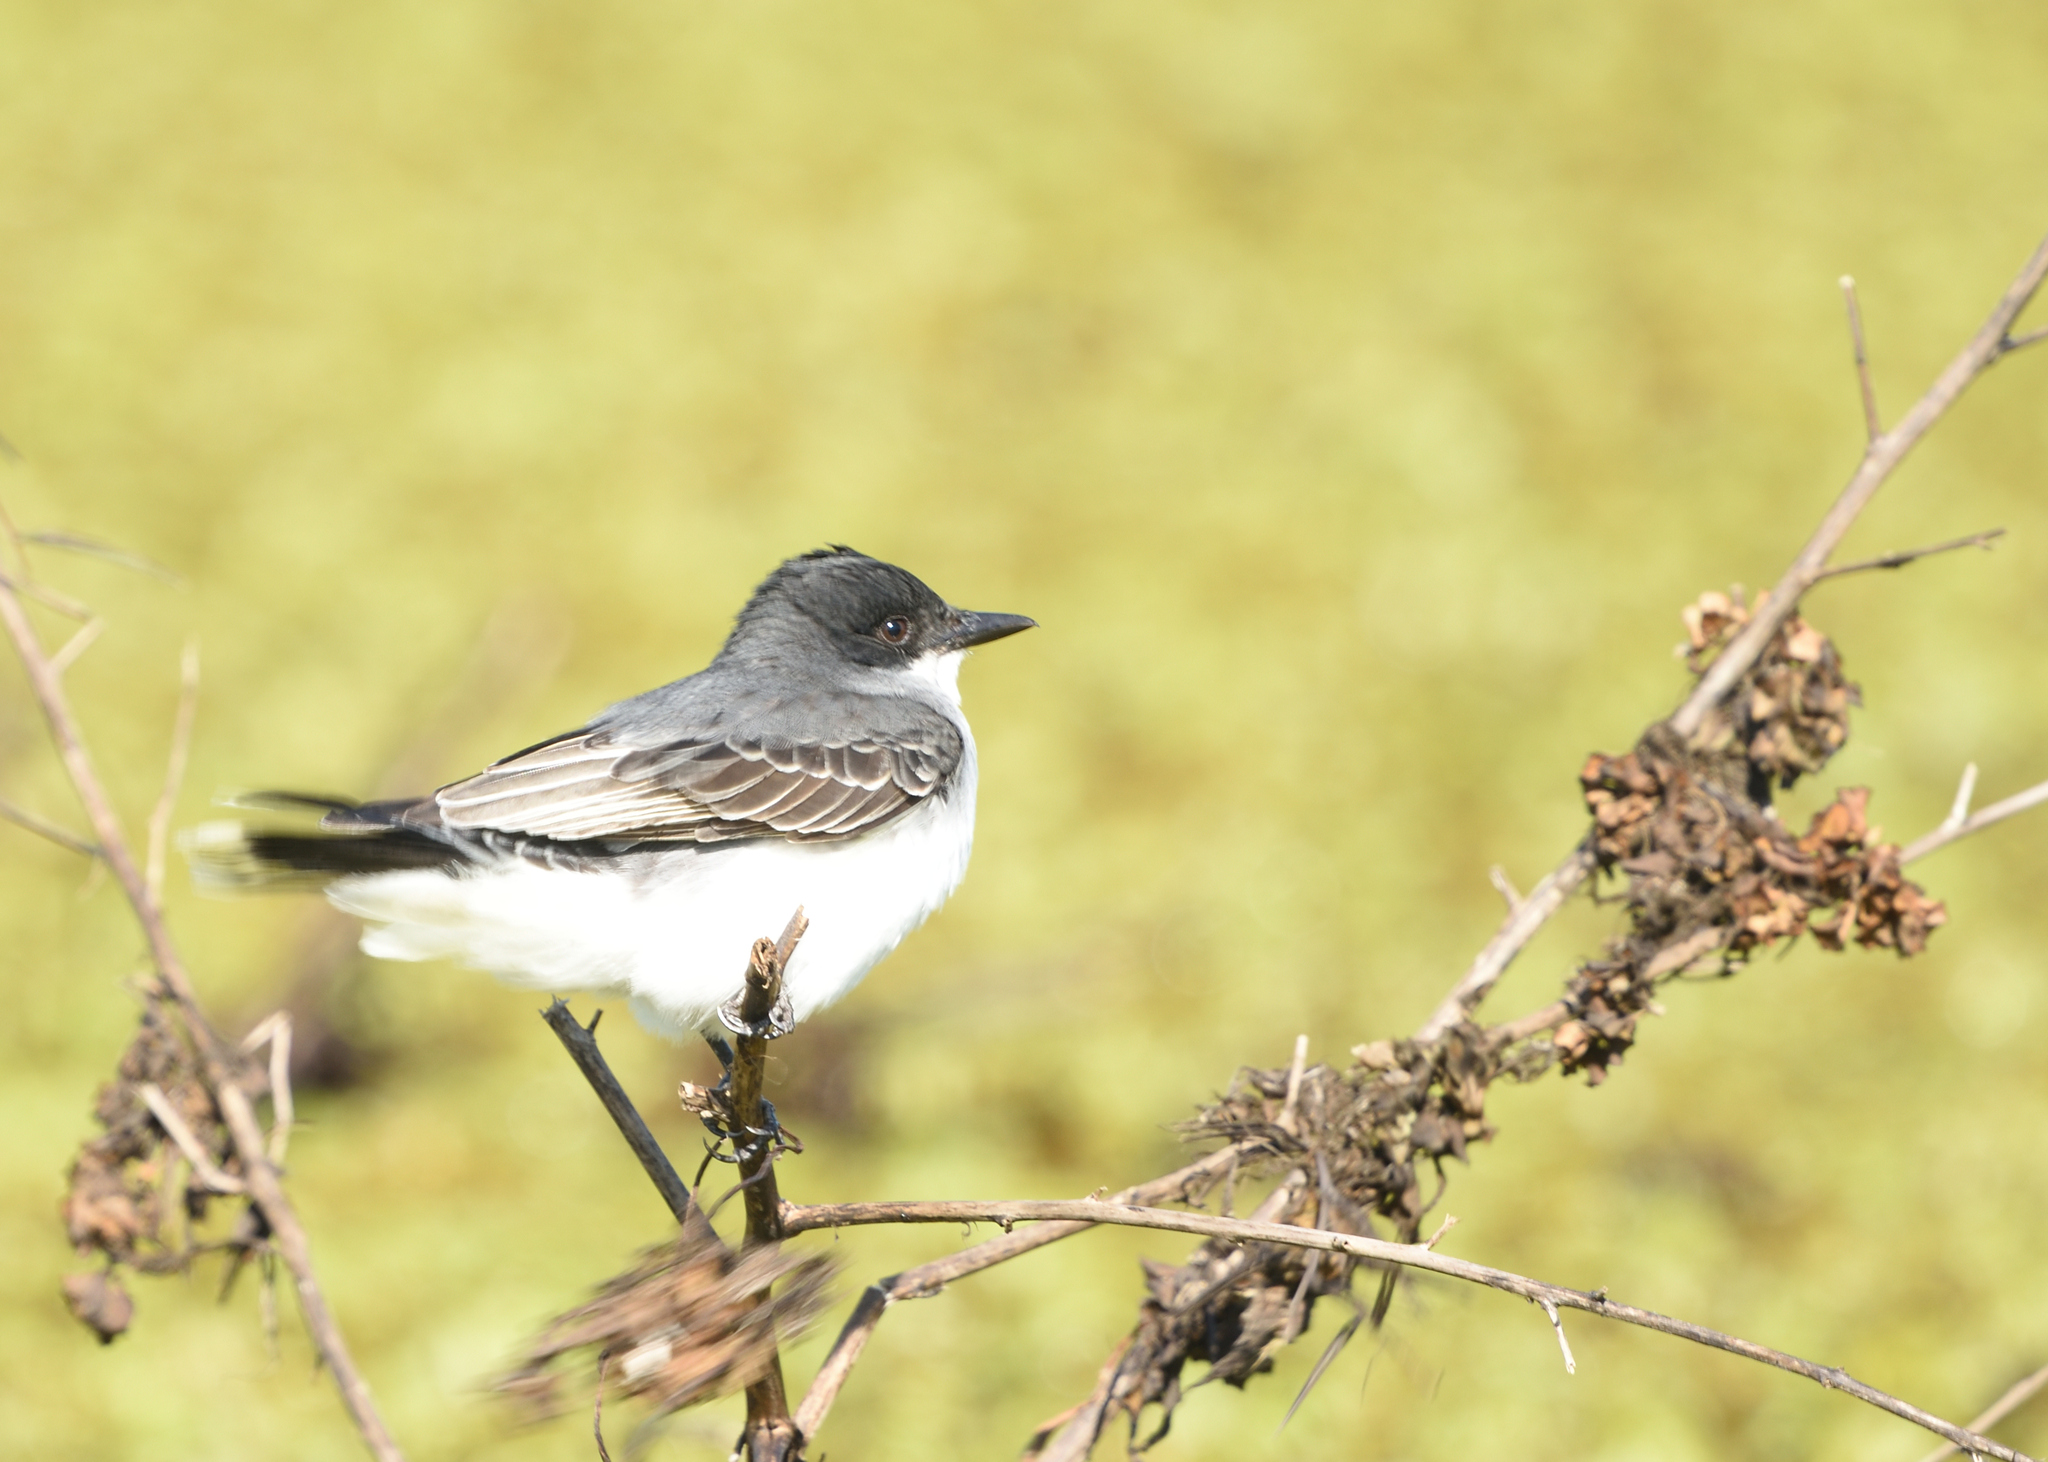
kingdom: Animalia
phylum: Chordata
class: Aves
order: Passeriformes
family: Tyrannidae
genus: Tyrannus
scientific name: Tyrannus tyrannus
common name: Eastern kingbird
